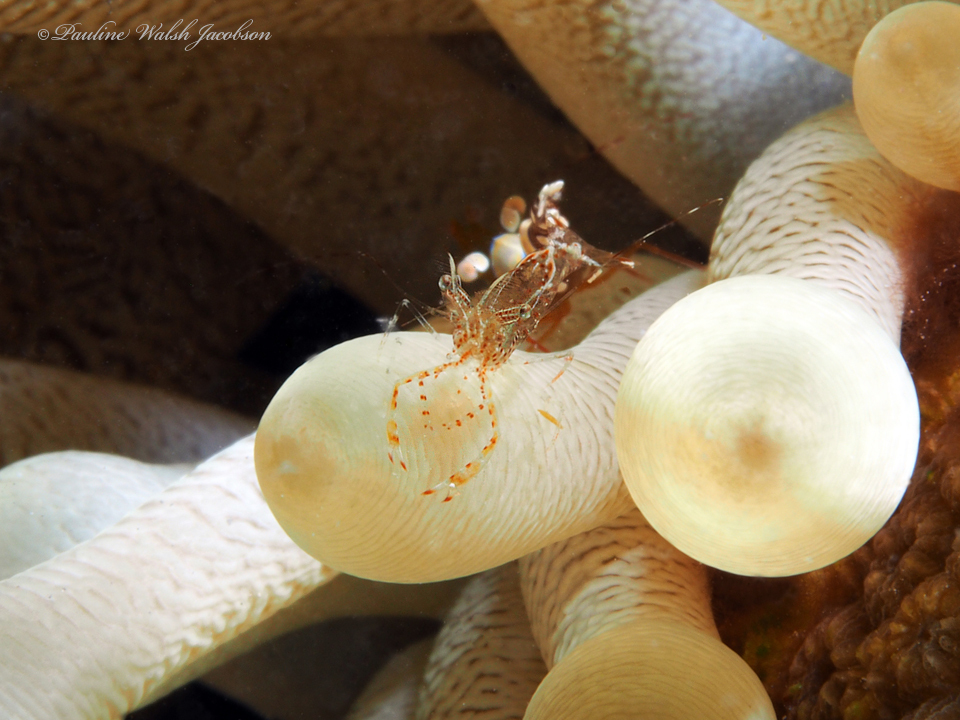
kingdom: Animalia
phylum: Arthropoda
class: Malacostraca
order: Decapoda
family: Palaemonidae
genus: Periclimenes
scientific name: Periclimenes rathbunae
